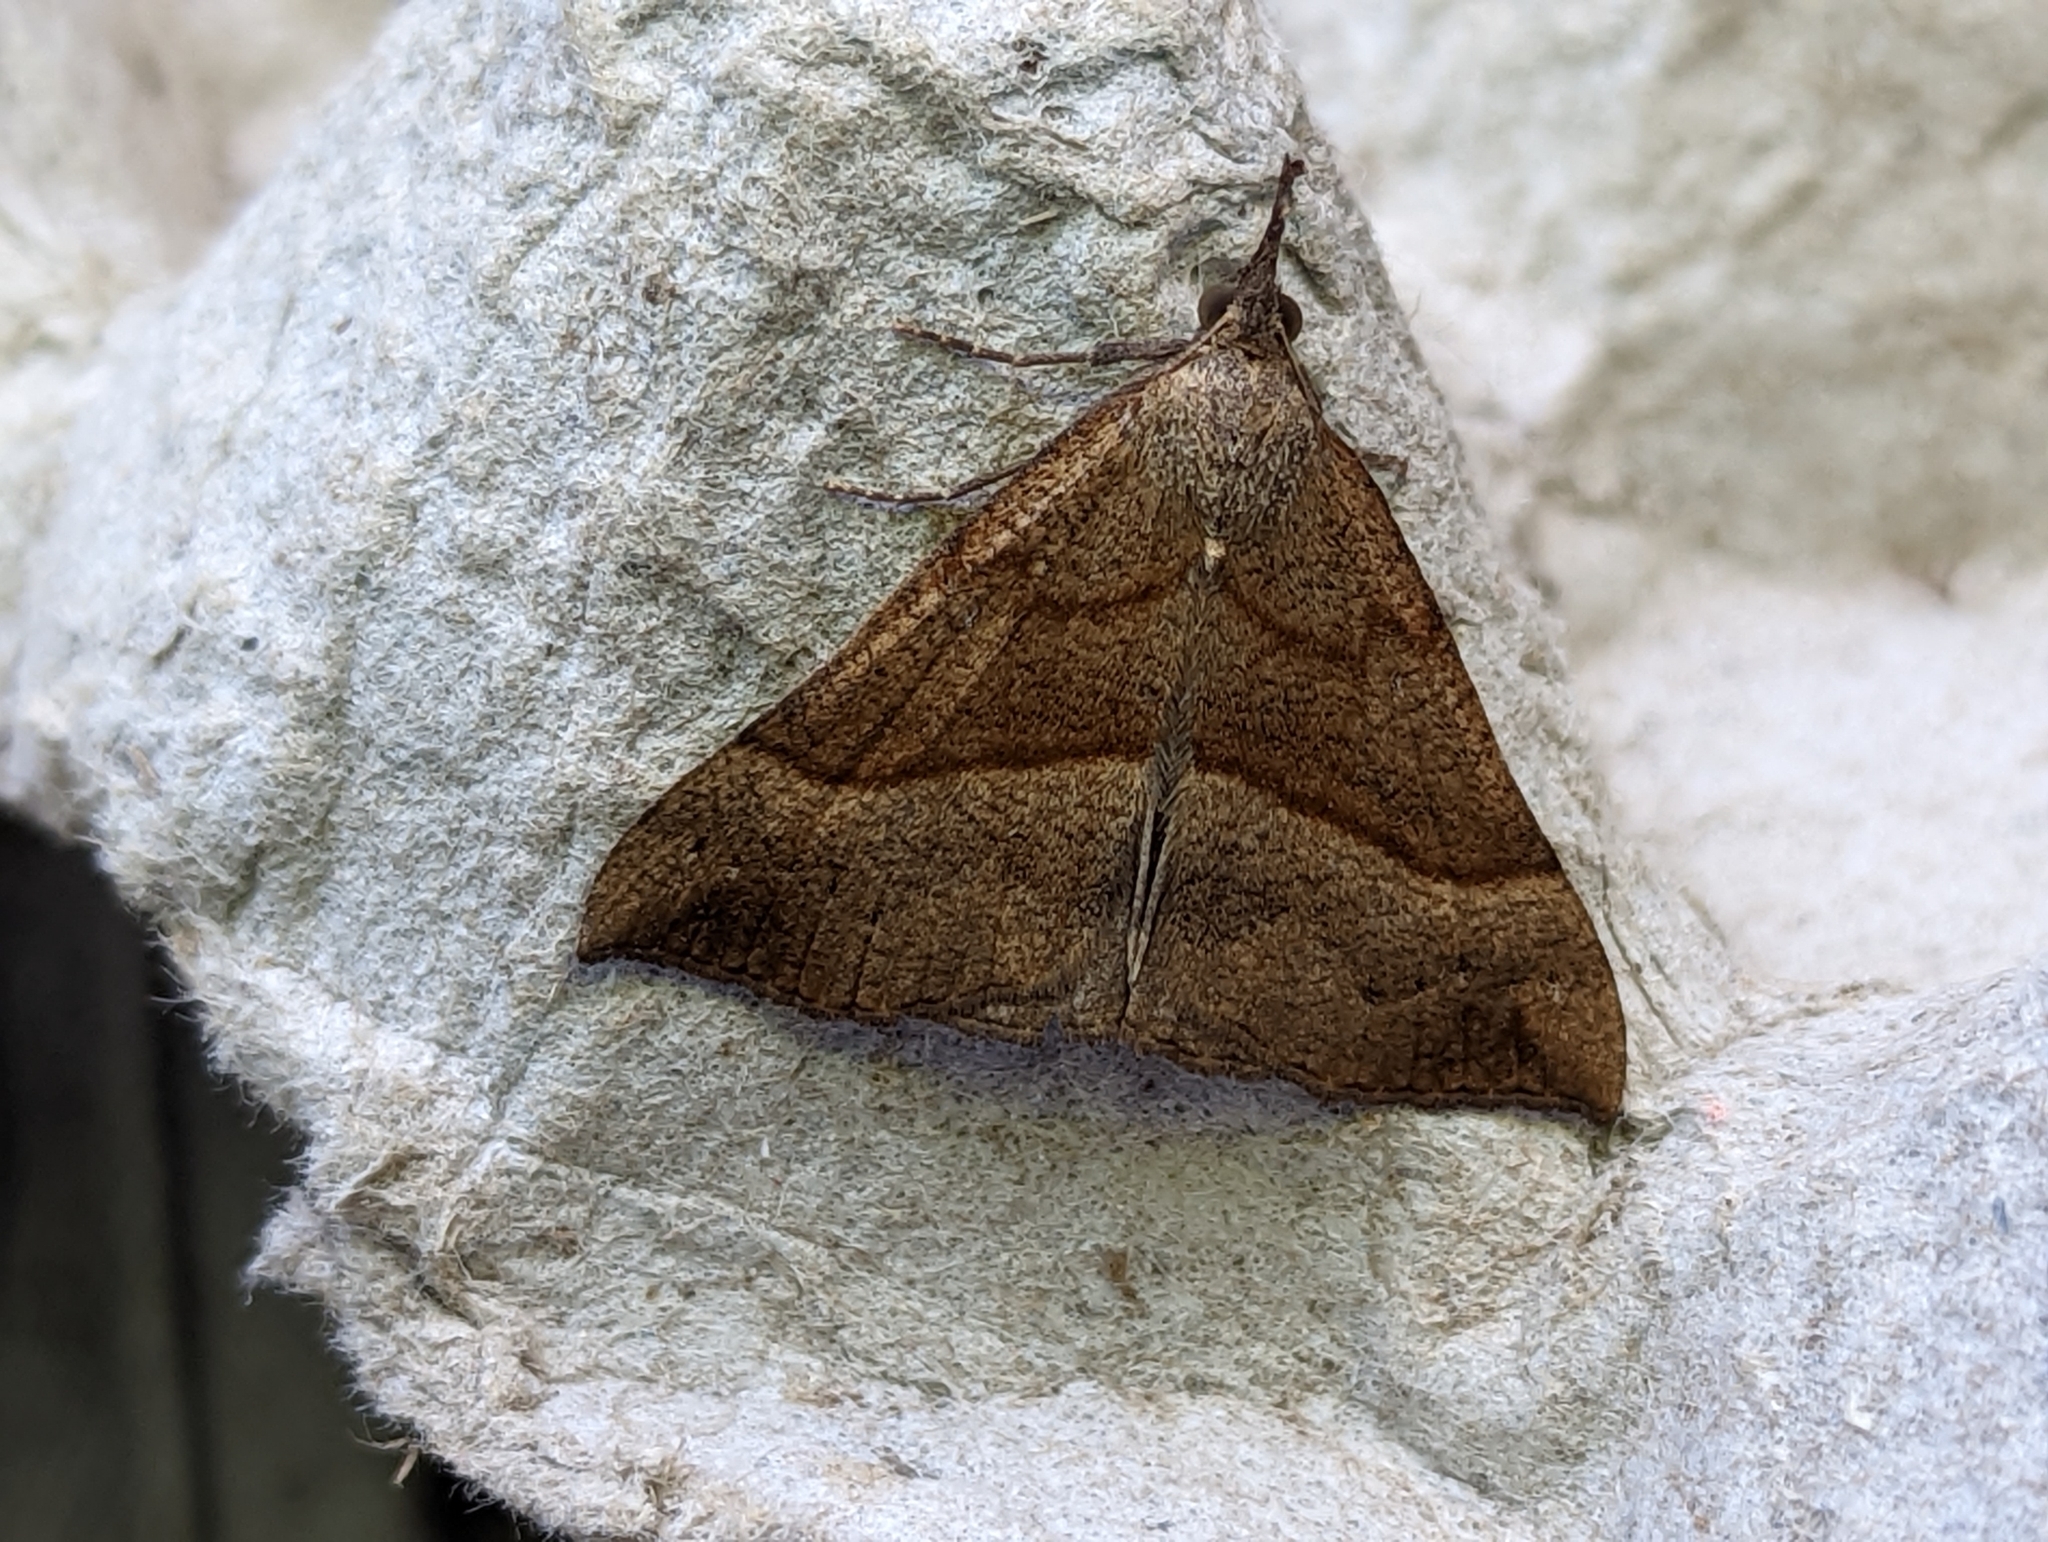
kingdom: Animalia
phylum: Arthropoda
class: Insecta
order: Lepidoptera
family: Erebidae
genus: Hypena
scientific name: Hypena proboscidalis
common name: Snout
